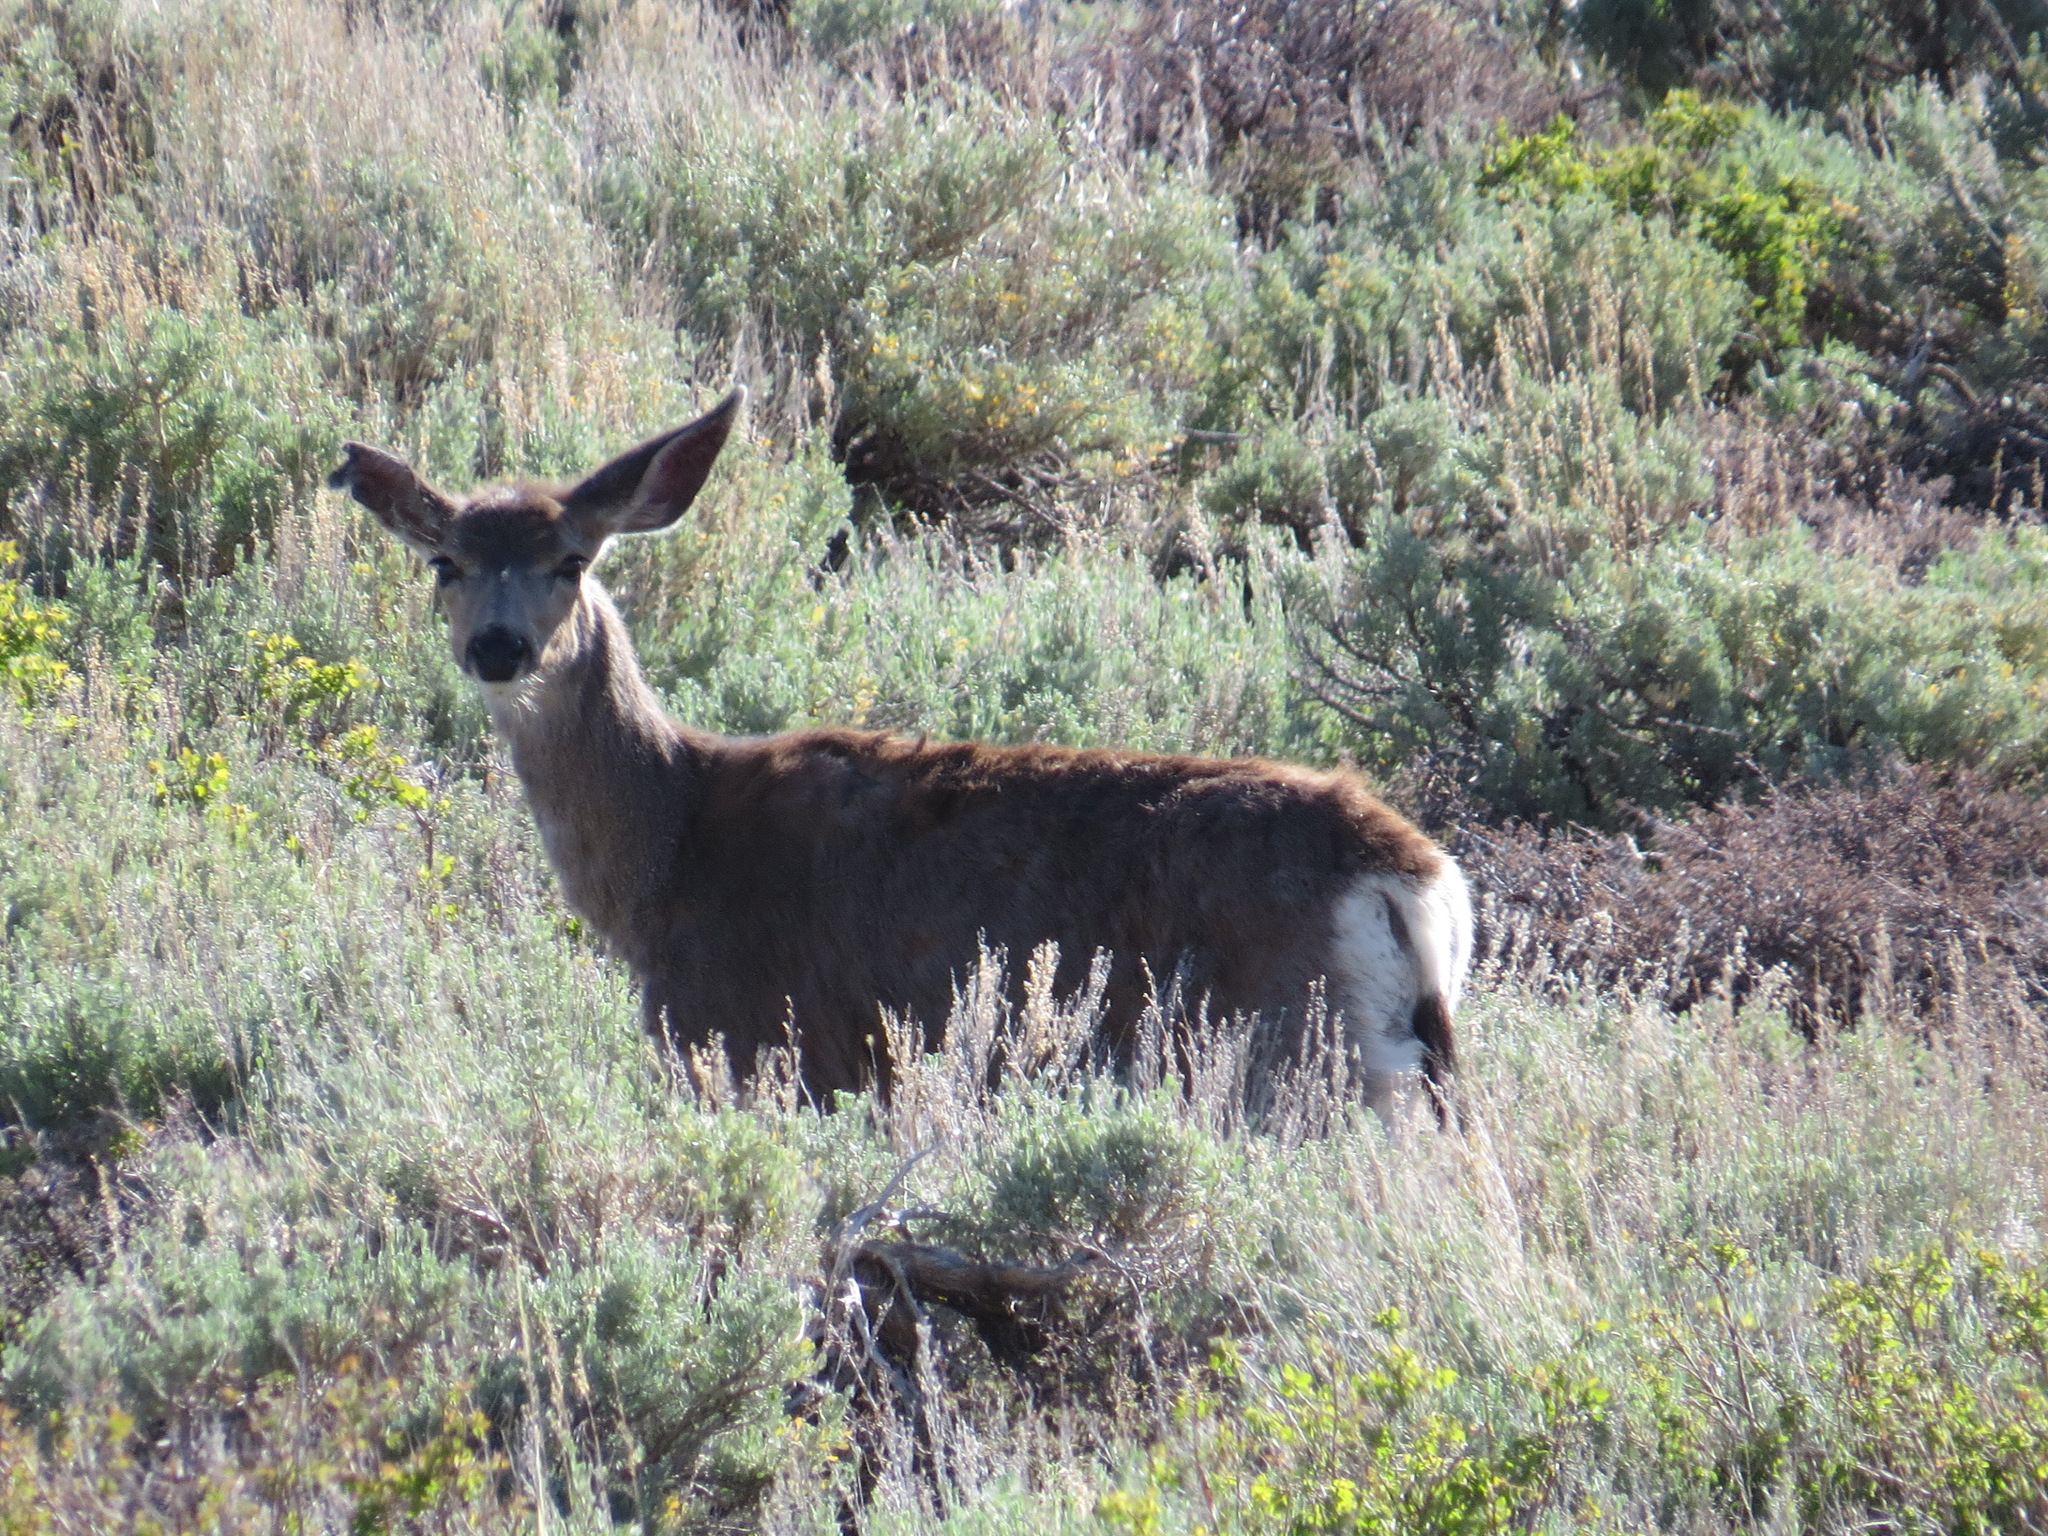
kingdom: Animalia
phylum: Chordata
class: Mammalia
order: Artiodactyla
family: Cervidae
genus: Odocoileus
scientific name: Odocoileus hemionus
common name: Mule deer
